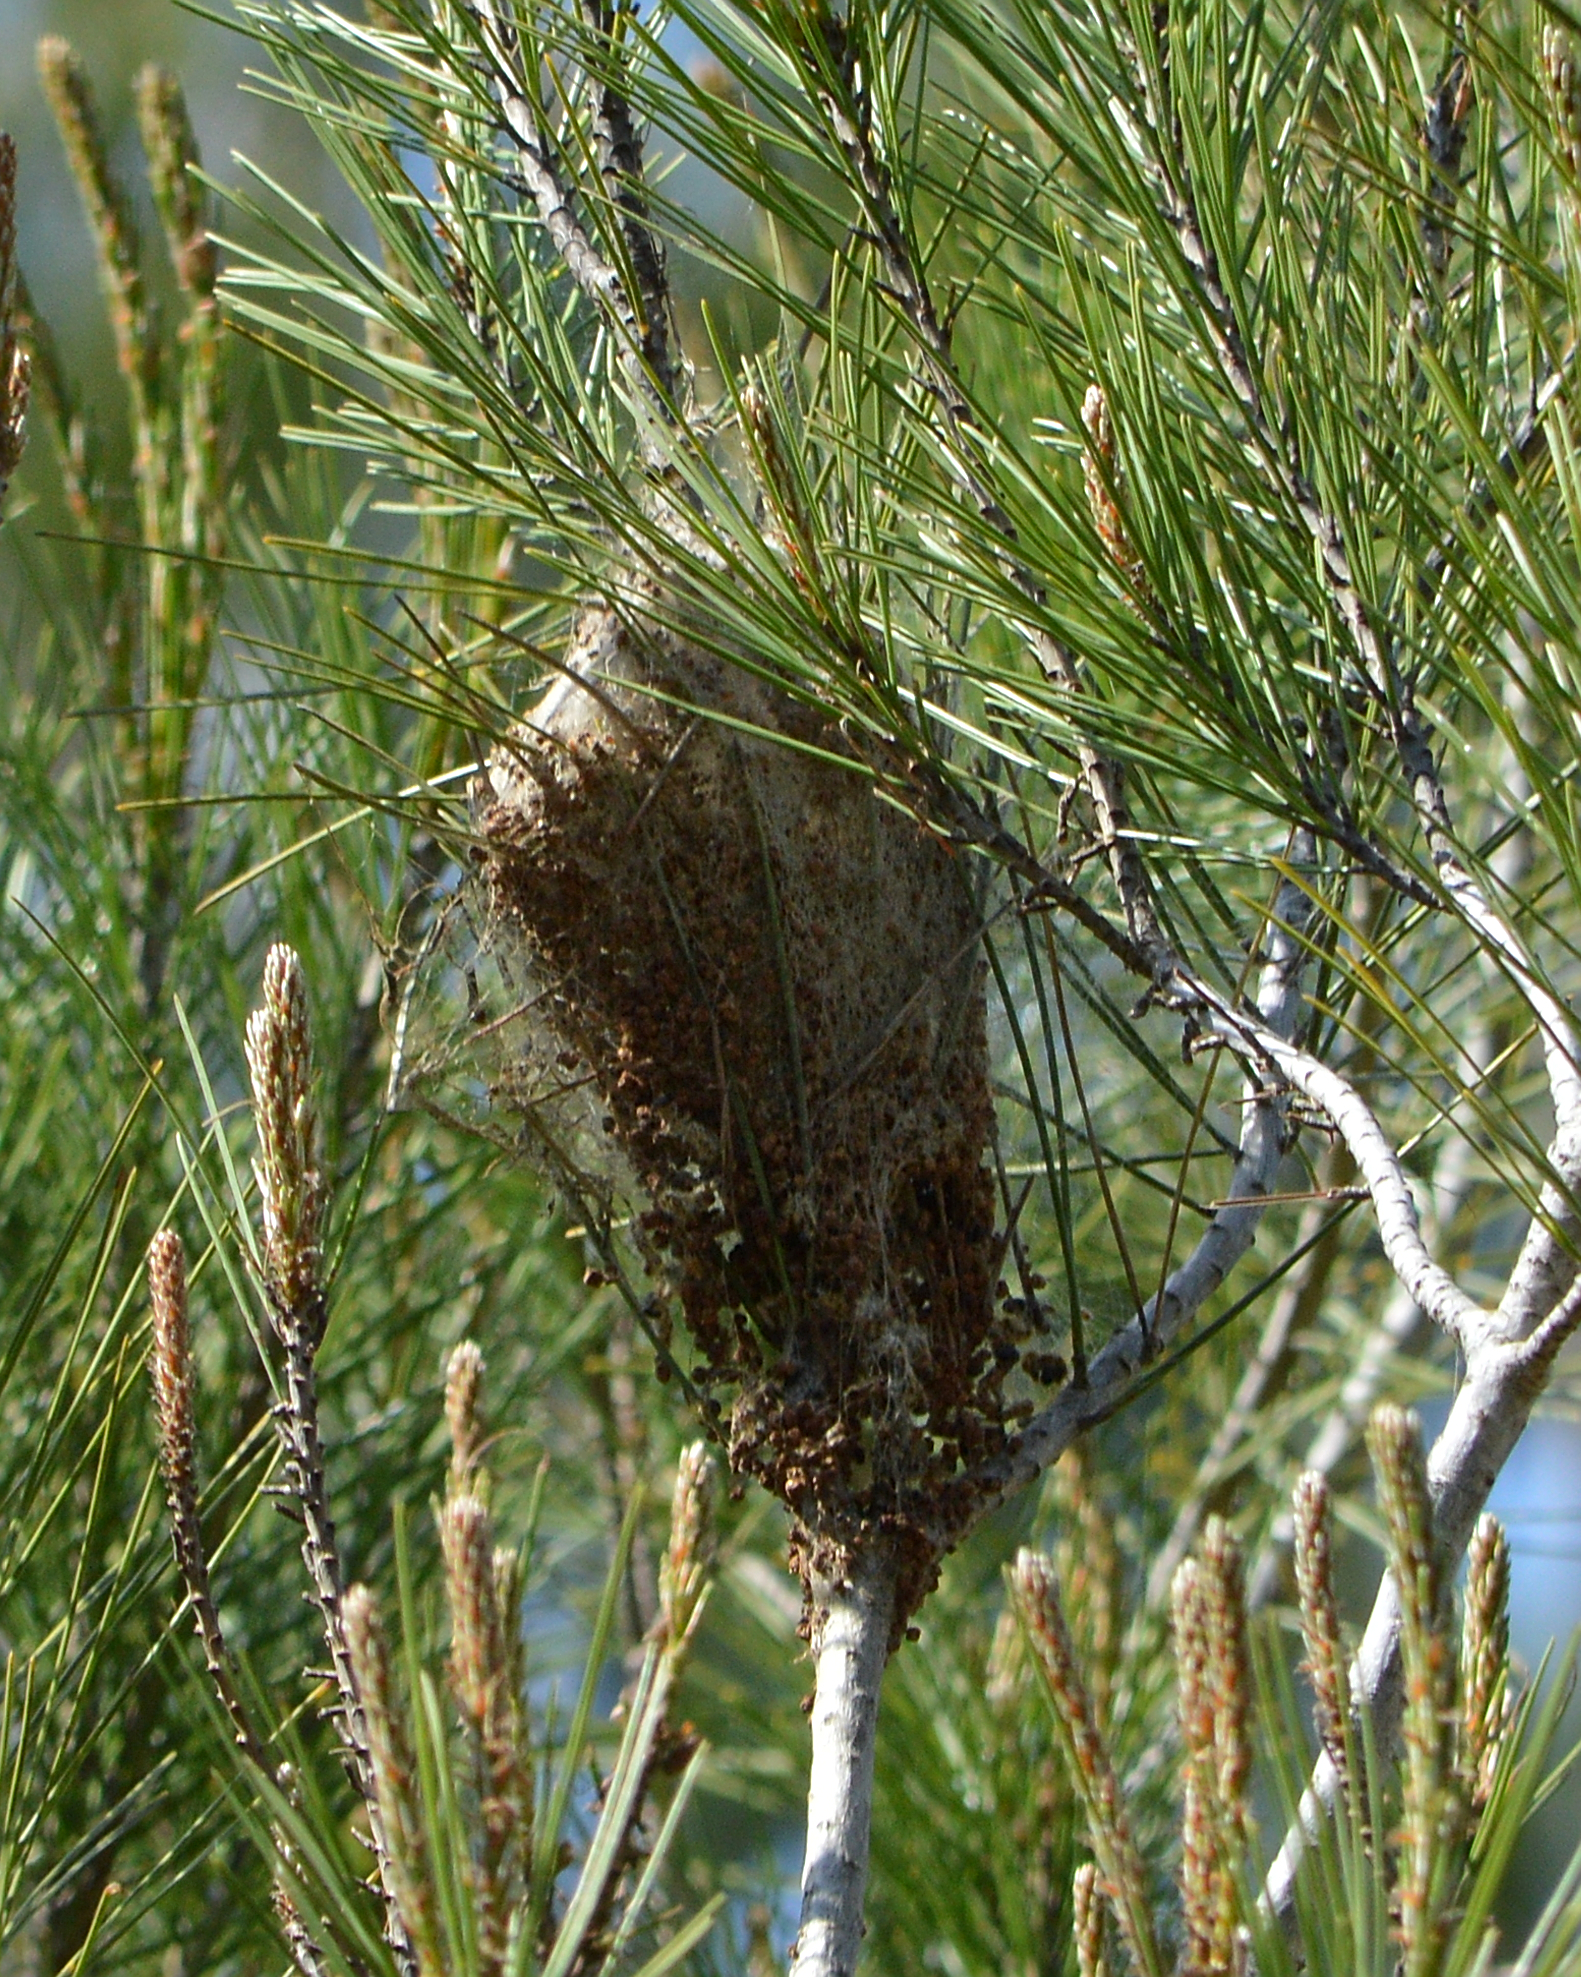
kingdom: Animalia
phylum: Arthropoda
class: Insecta
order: Lepidoptera
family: Notodontidae
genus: Thaumetopoea
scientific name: Thaumetopoea pityocampa
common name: Pine processionary
